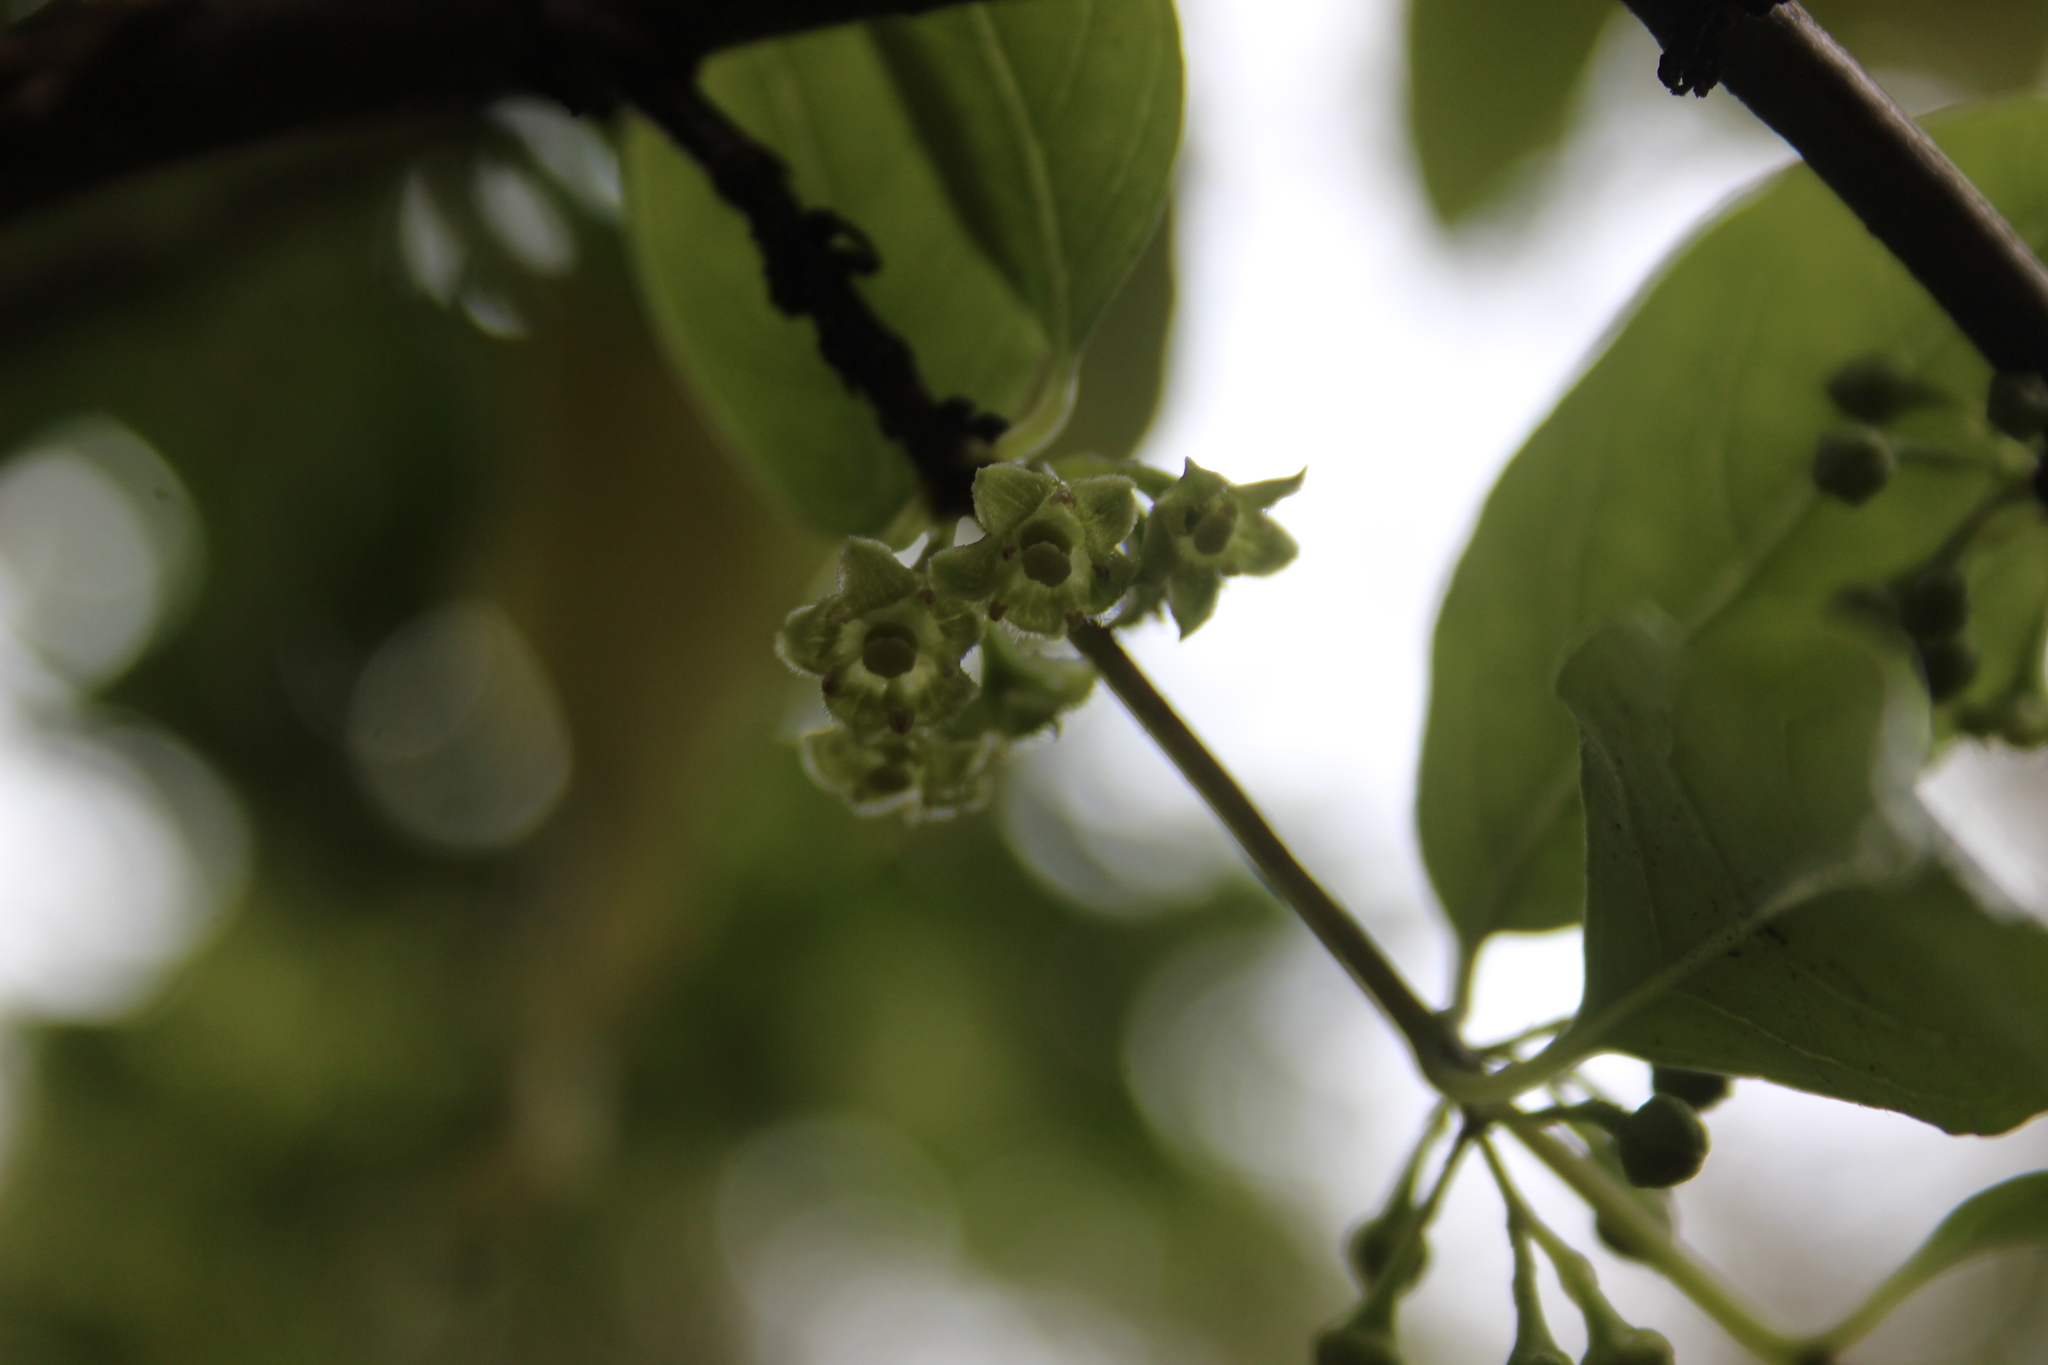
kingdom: Plantae
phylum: Tracheophyta
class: Magnoliopsida
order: Gentianales
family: Loganiaceae
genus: Geniostoma
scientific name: Geniostoma ligustrifolium
